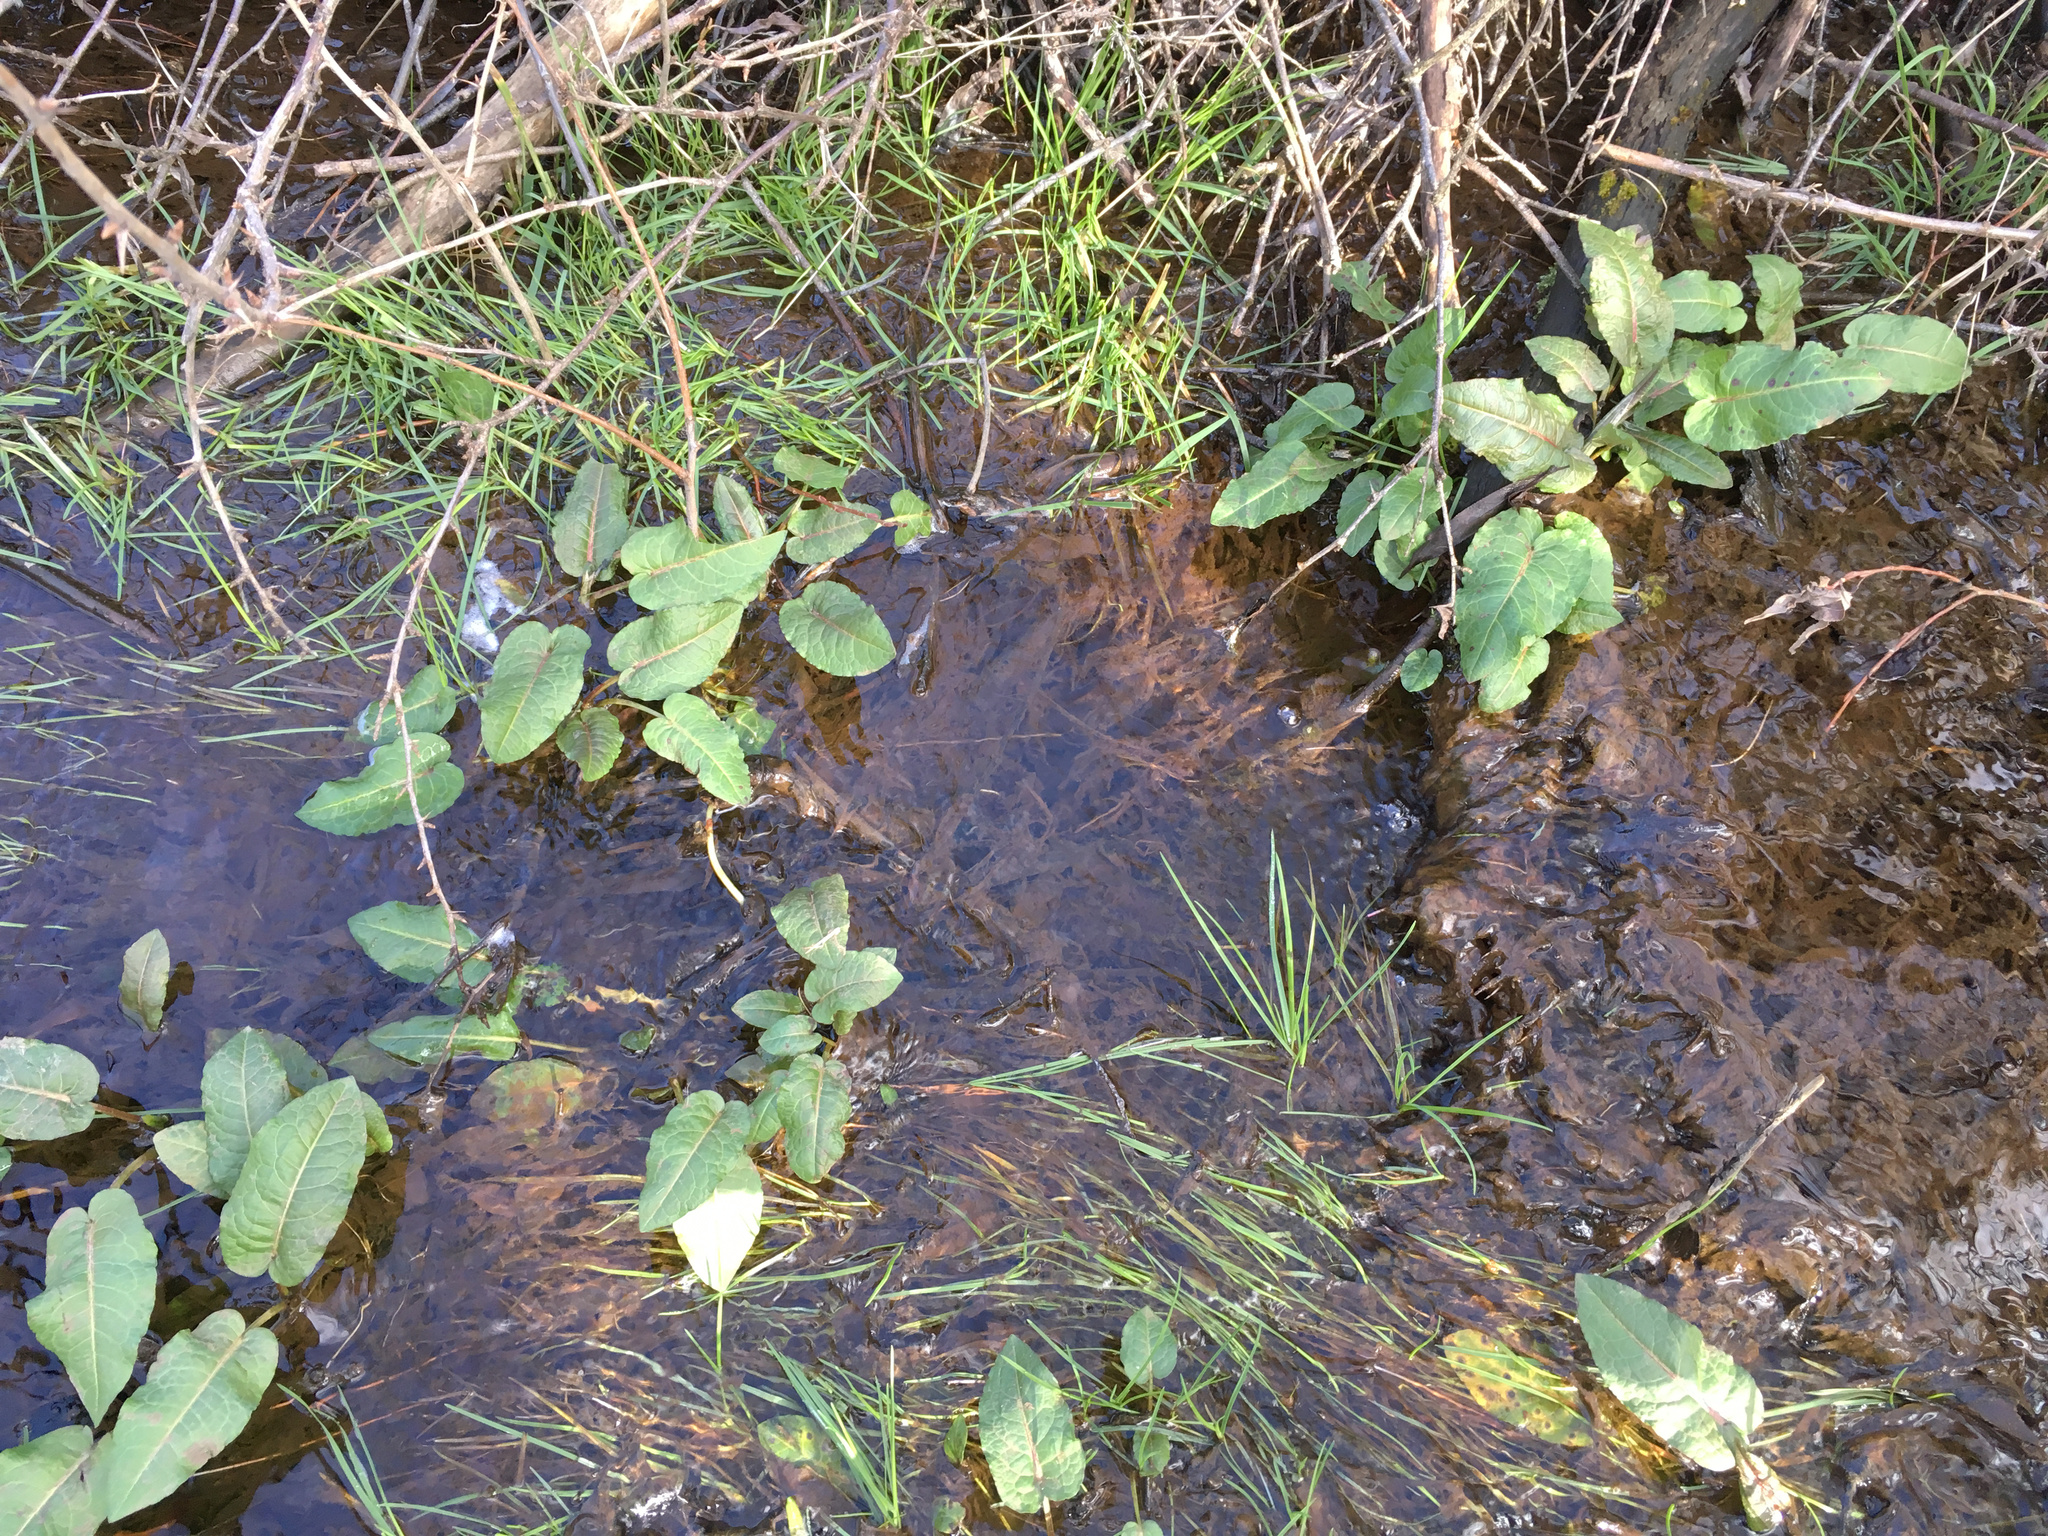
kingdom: Plantae
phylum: Tracheophyta
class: Magnoliopsida
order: Caryophyllales
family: Polygonaceae
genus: Rumex
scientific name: Rumex obtusifolius
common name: Bitter dock
